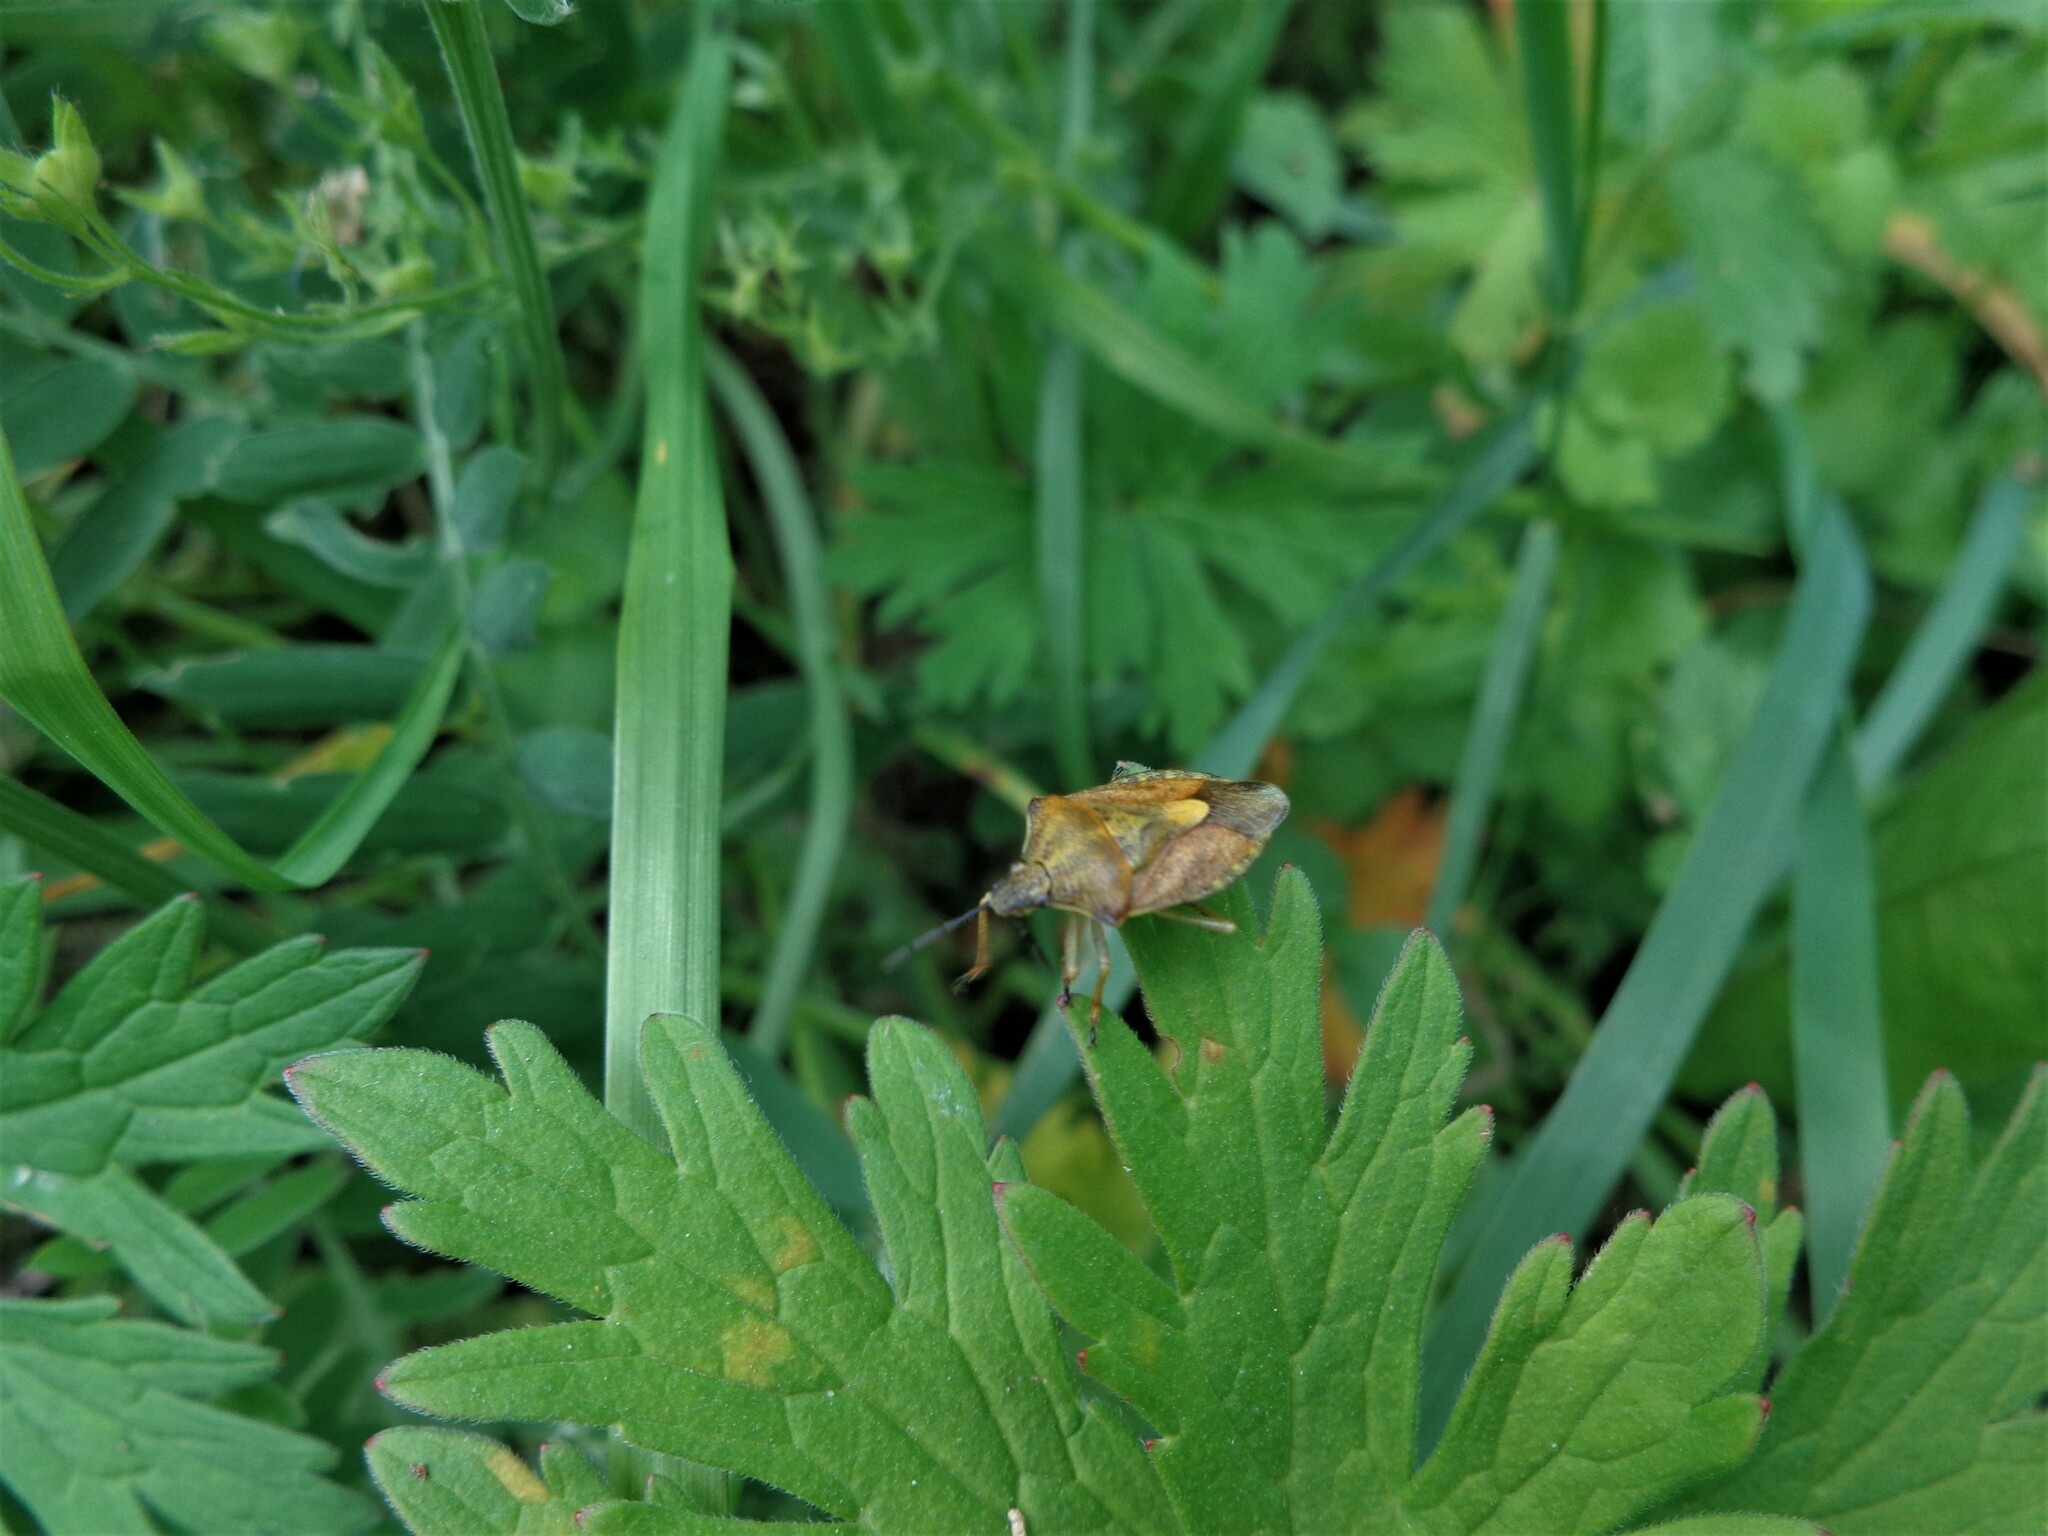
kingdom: Animalia
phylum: Arthropoda
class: Insecta
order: Hemiptera
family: Pentatomidae
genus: Carpocoris
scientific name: Carpocoris purpureipennis
